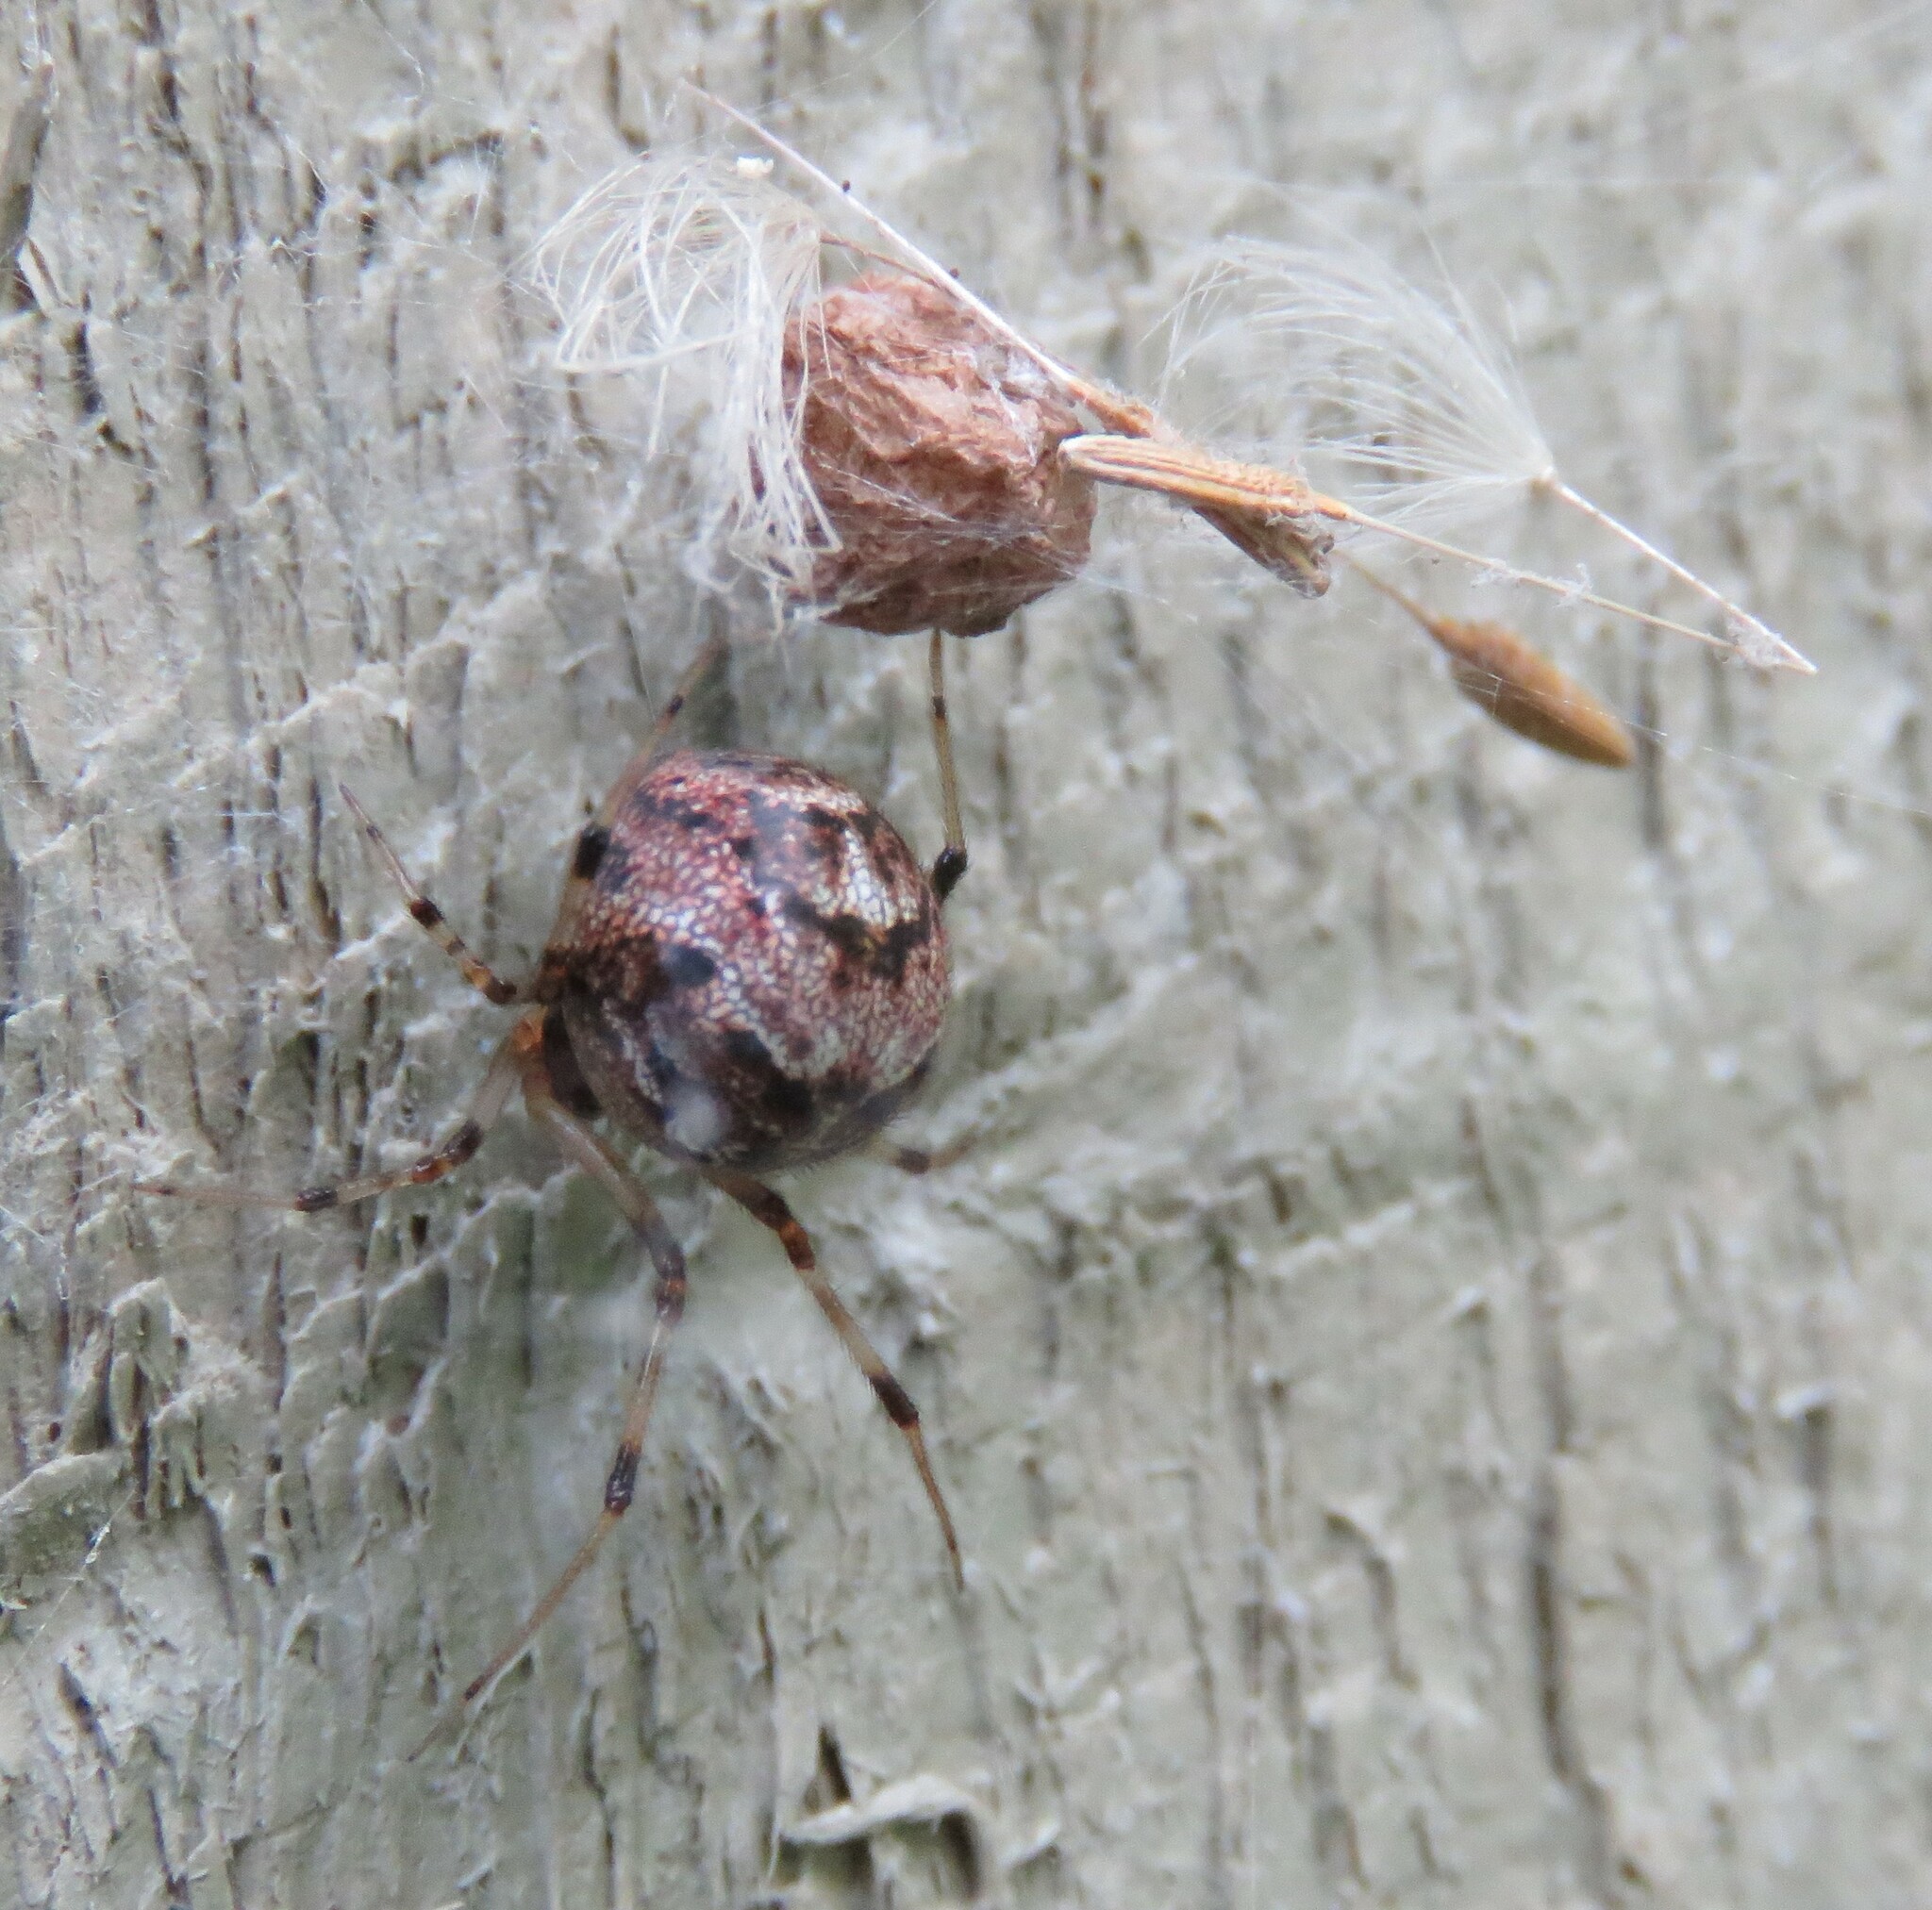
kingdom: Animalia
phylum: Arthropoda
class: Arachnida
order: Araneae
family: Theridiidae
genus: Parasteatoda
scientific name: Parasteatoda tepidariorum
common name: Common house spider
